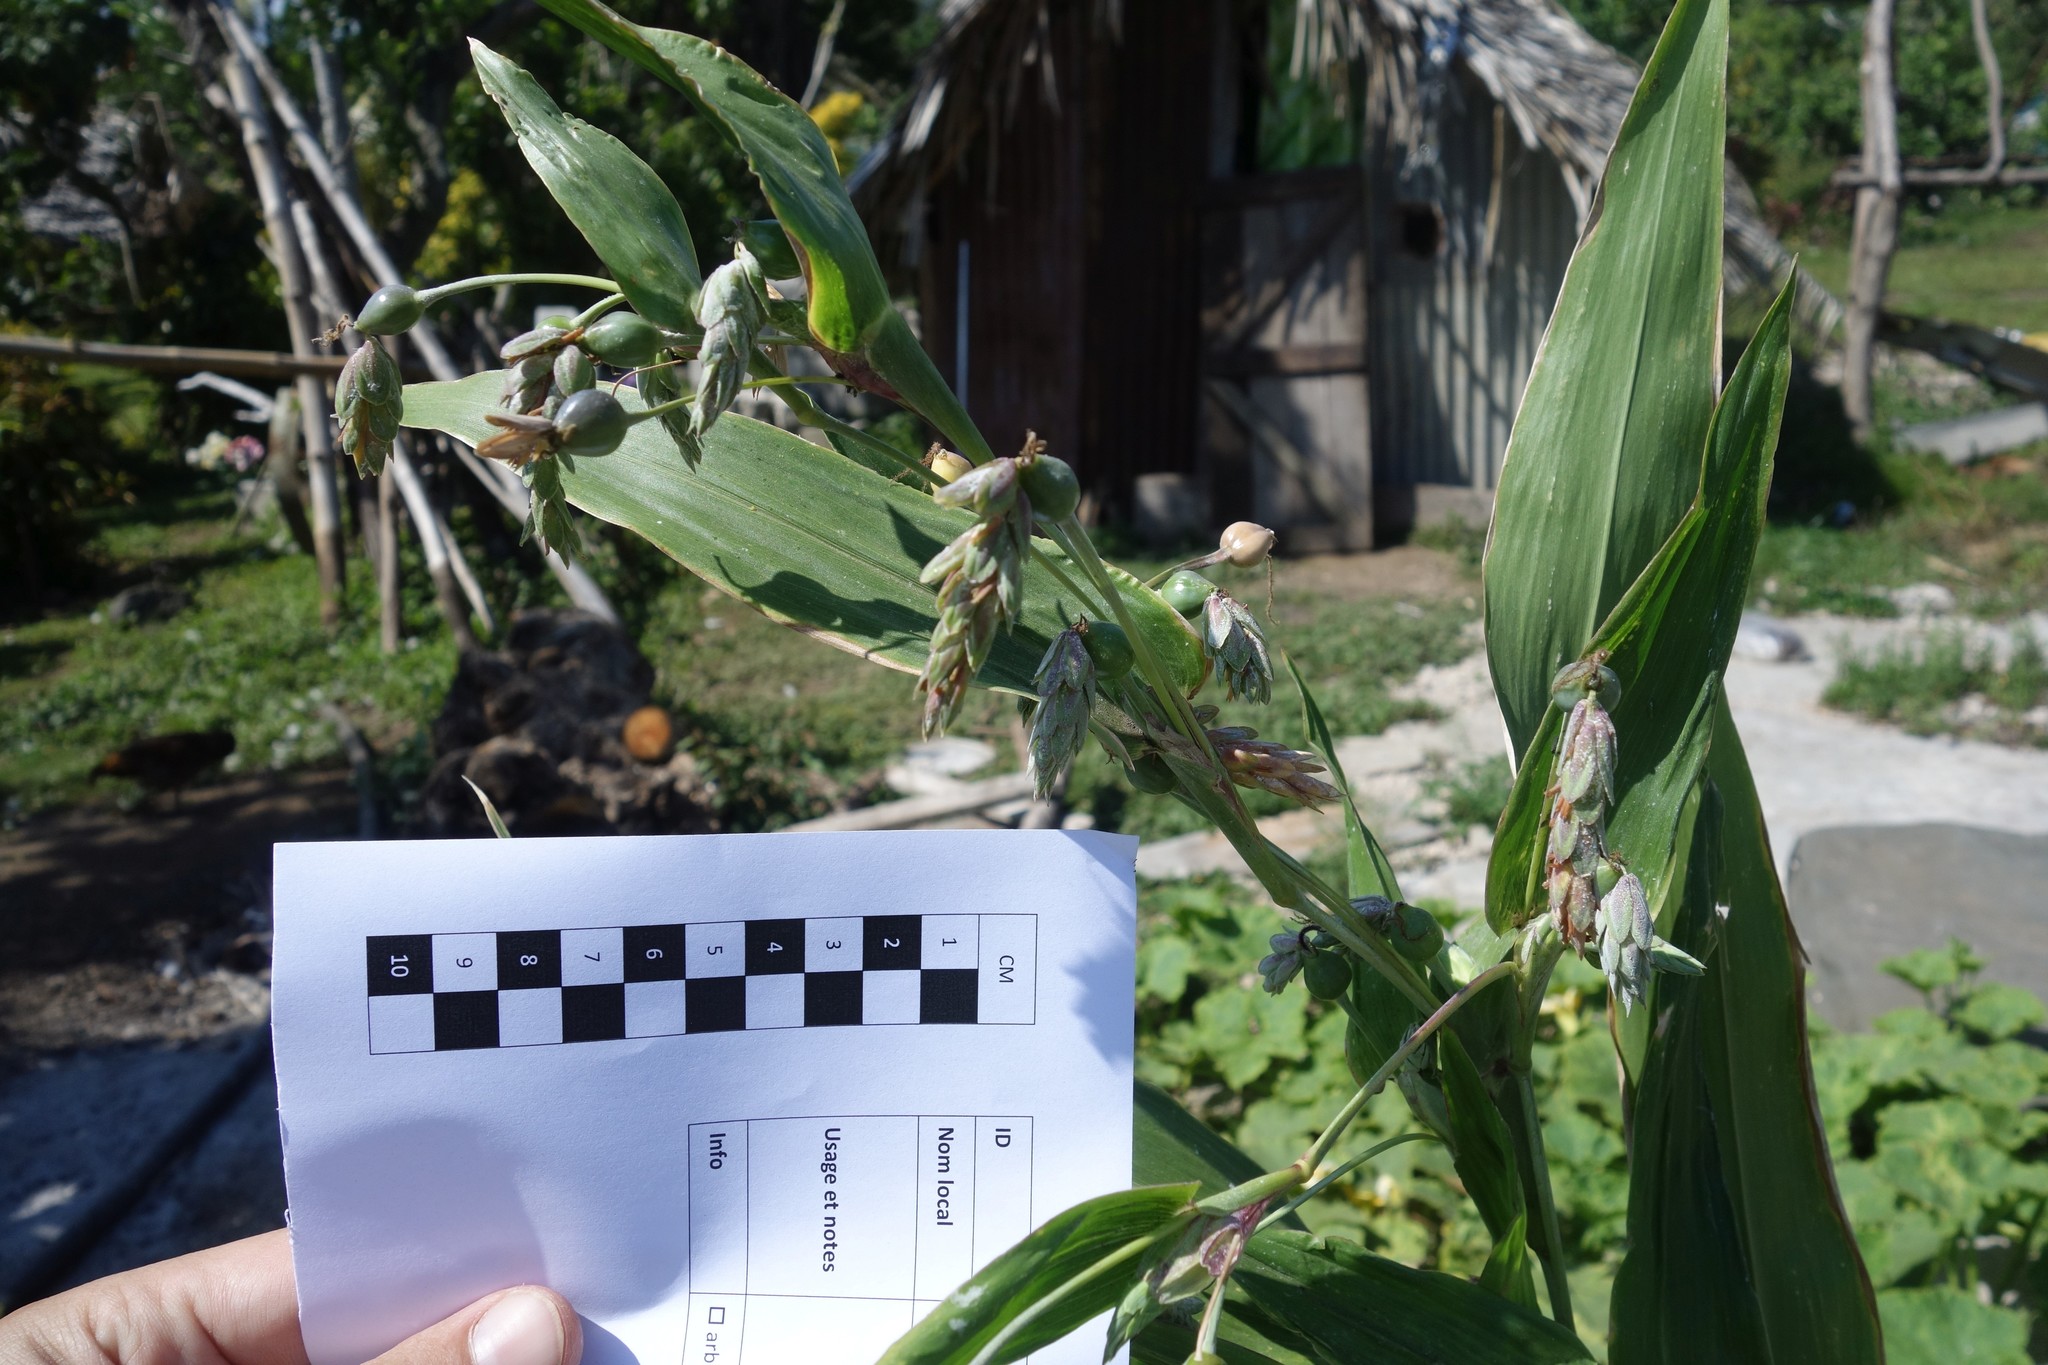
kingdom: Plantae
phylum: Tracheophyta
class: Liliopsida
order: Poales
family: Poaceae
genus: Coix
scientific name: Coix lacryma-jobi
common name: Job's tears
